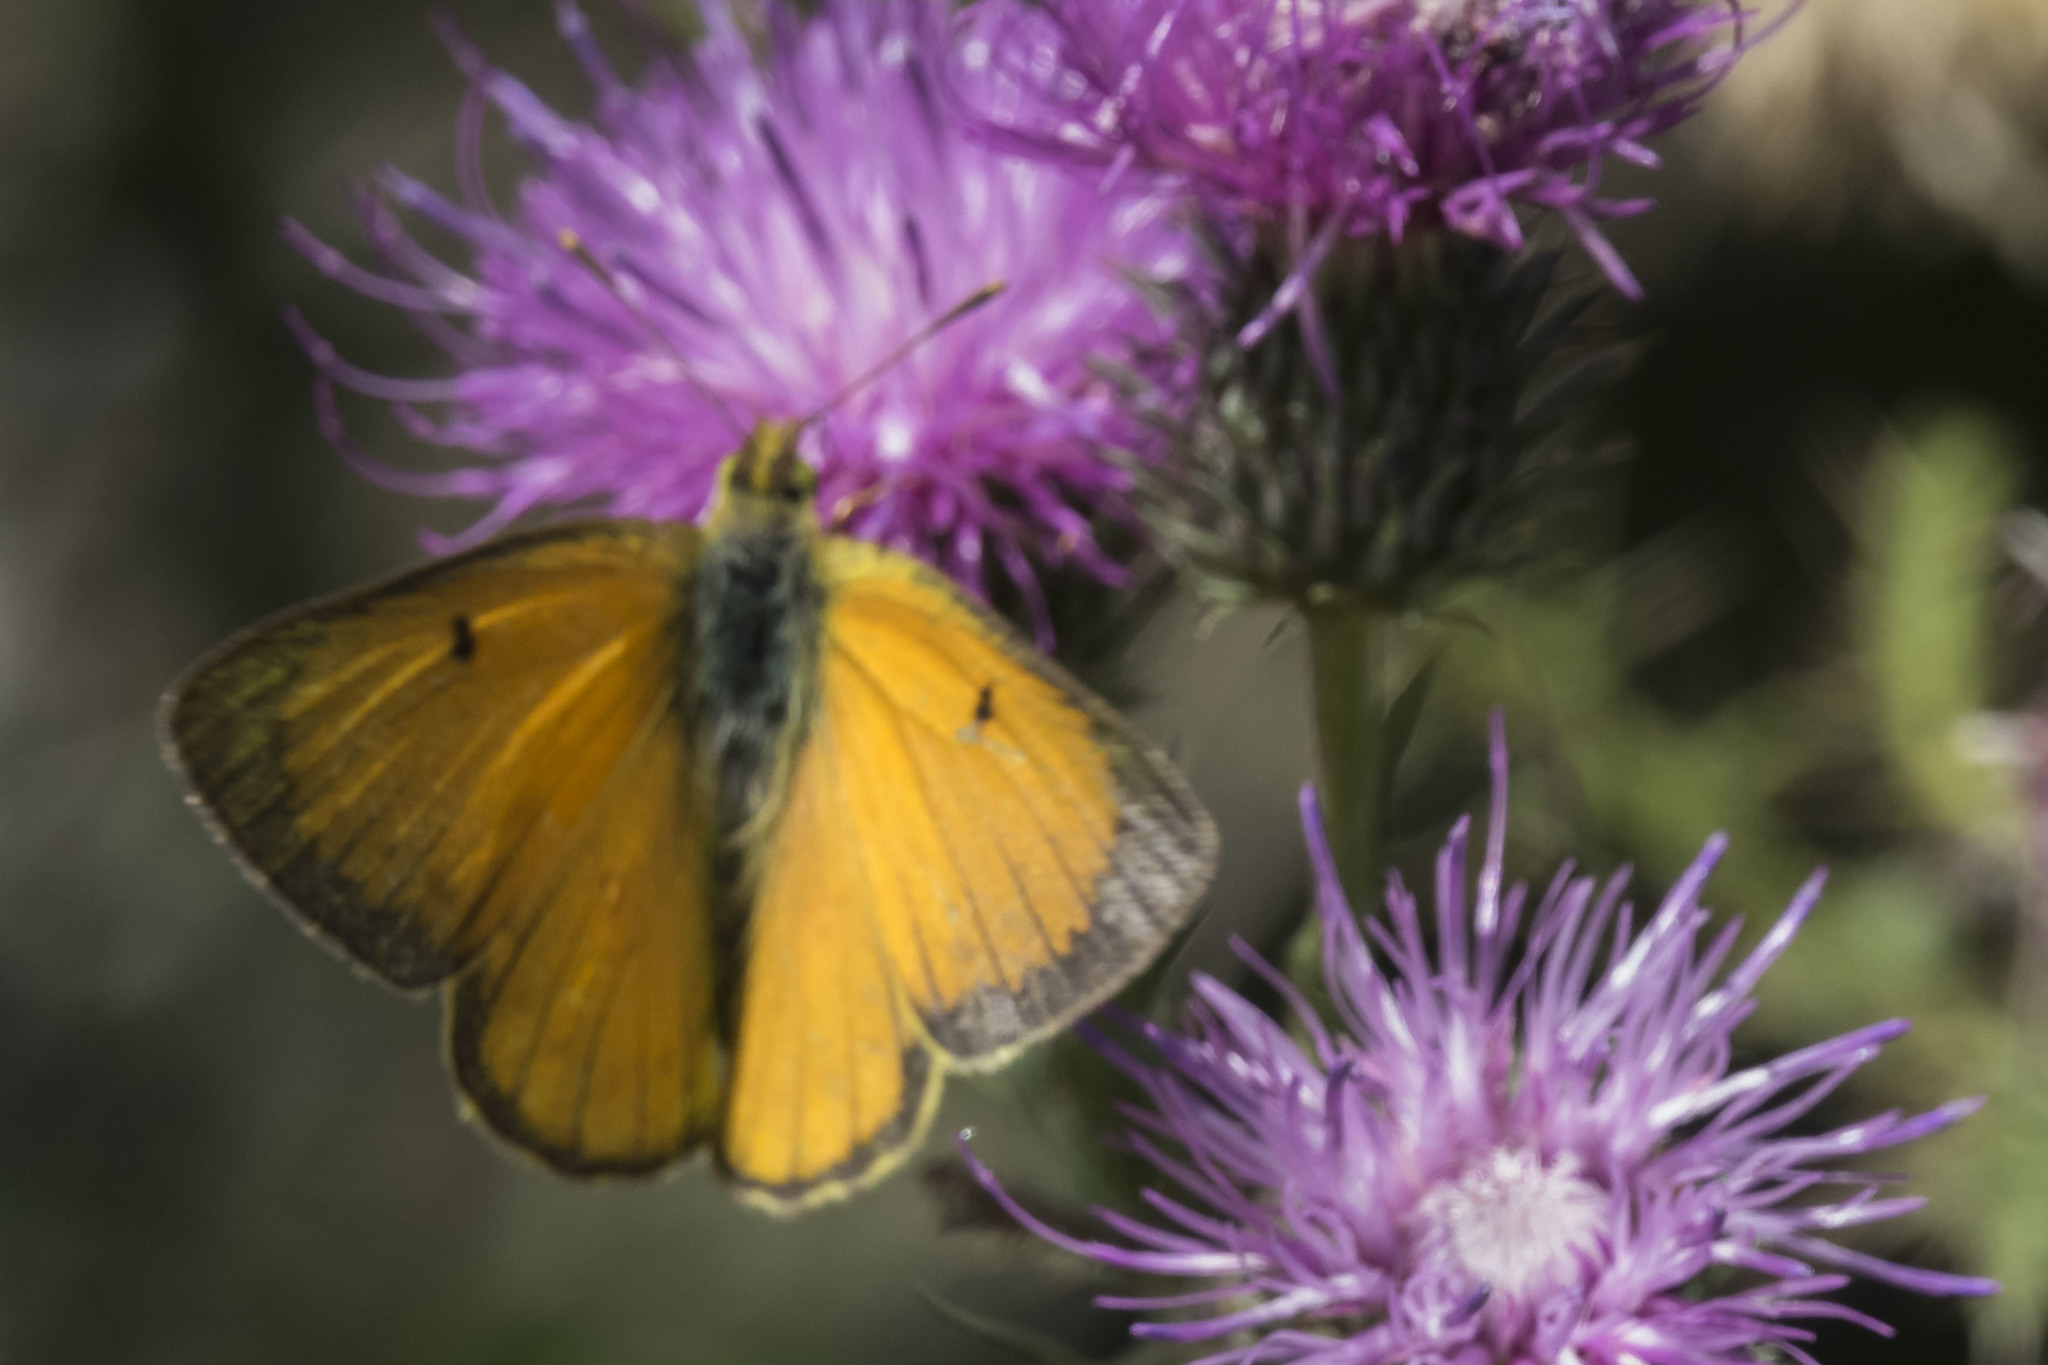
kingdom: Animalia
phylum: Arthropoda
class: Insecta
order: Lepidoptera
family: Pieridae
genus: Colias
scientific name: Colias lesbia
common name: Lesbia clouded yellow
